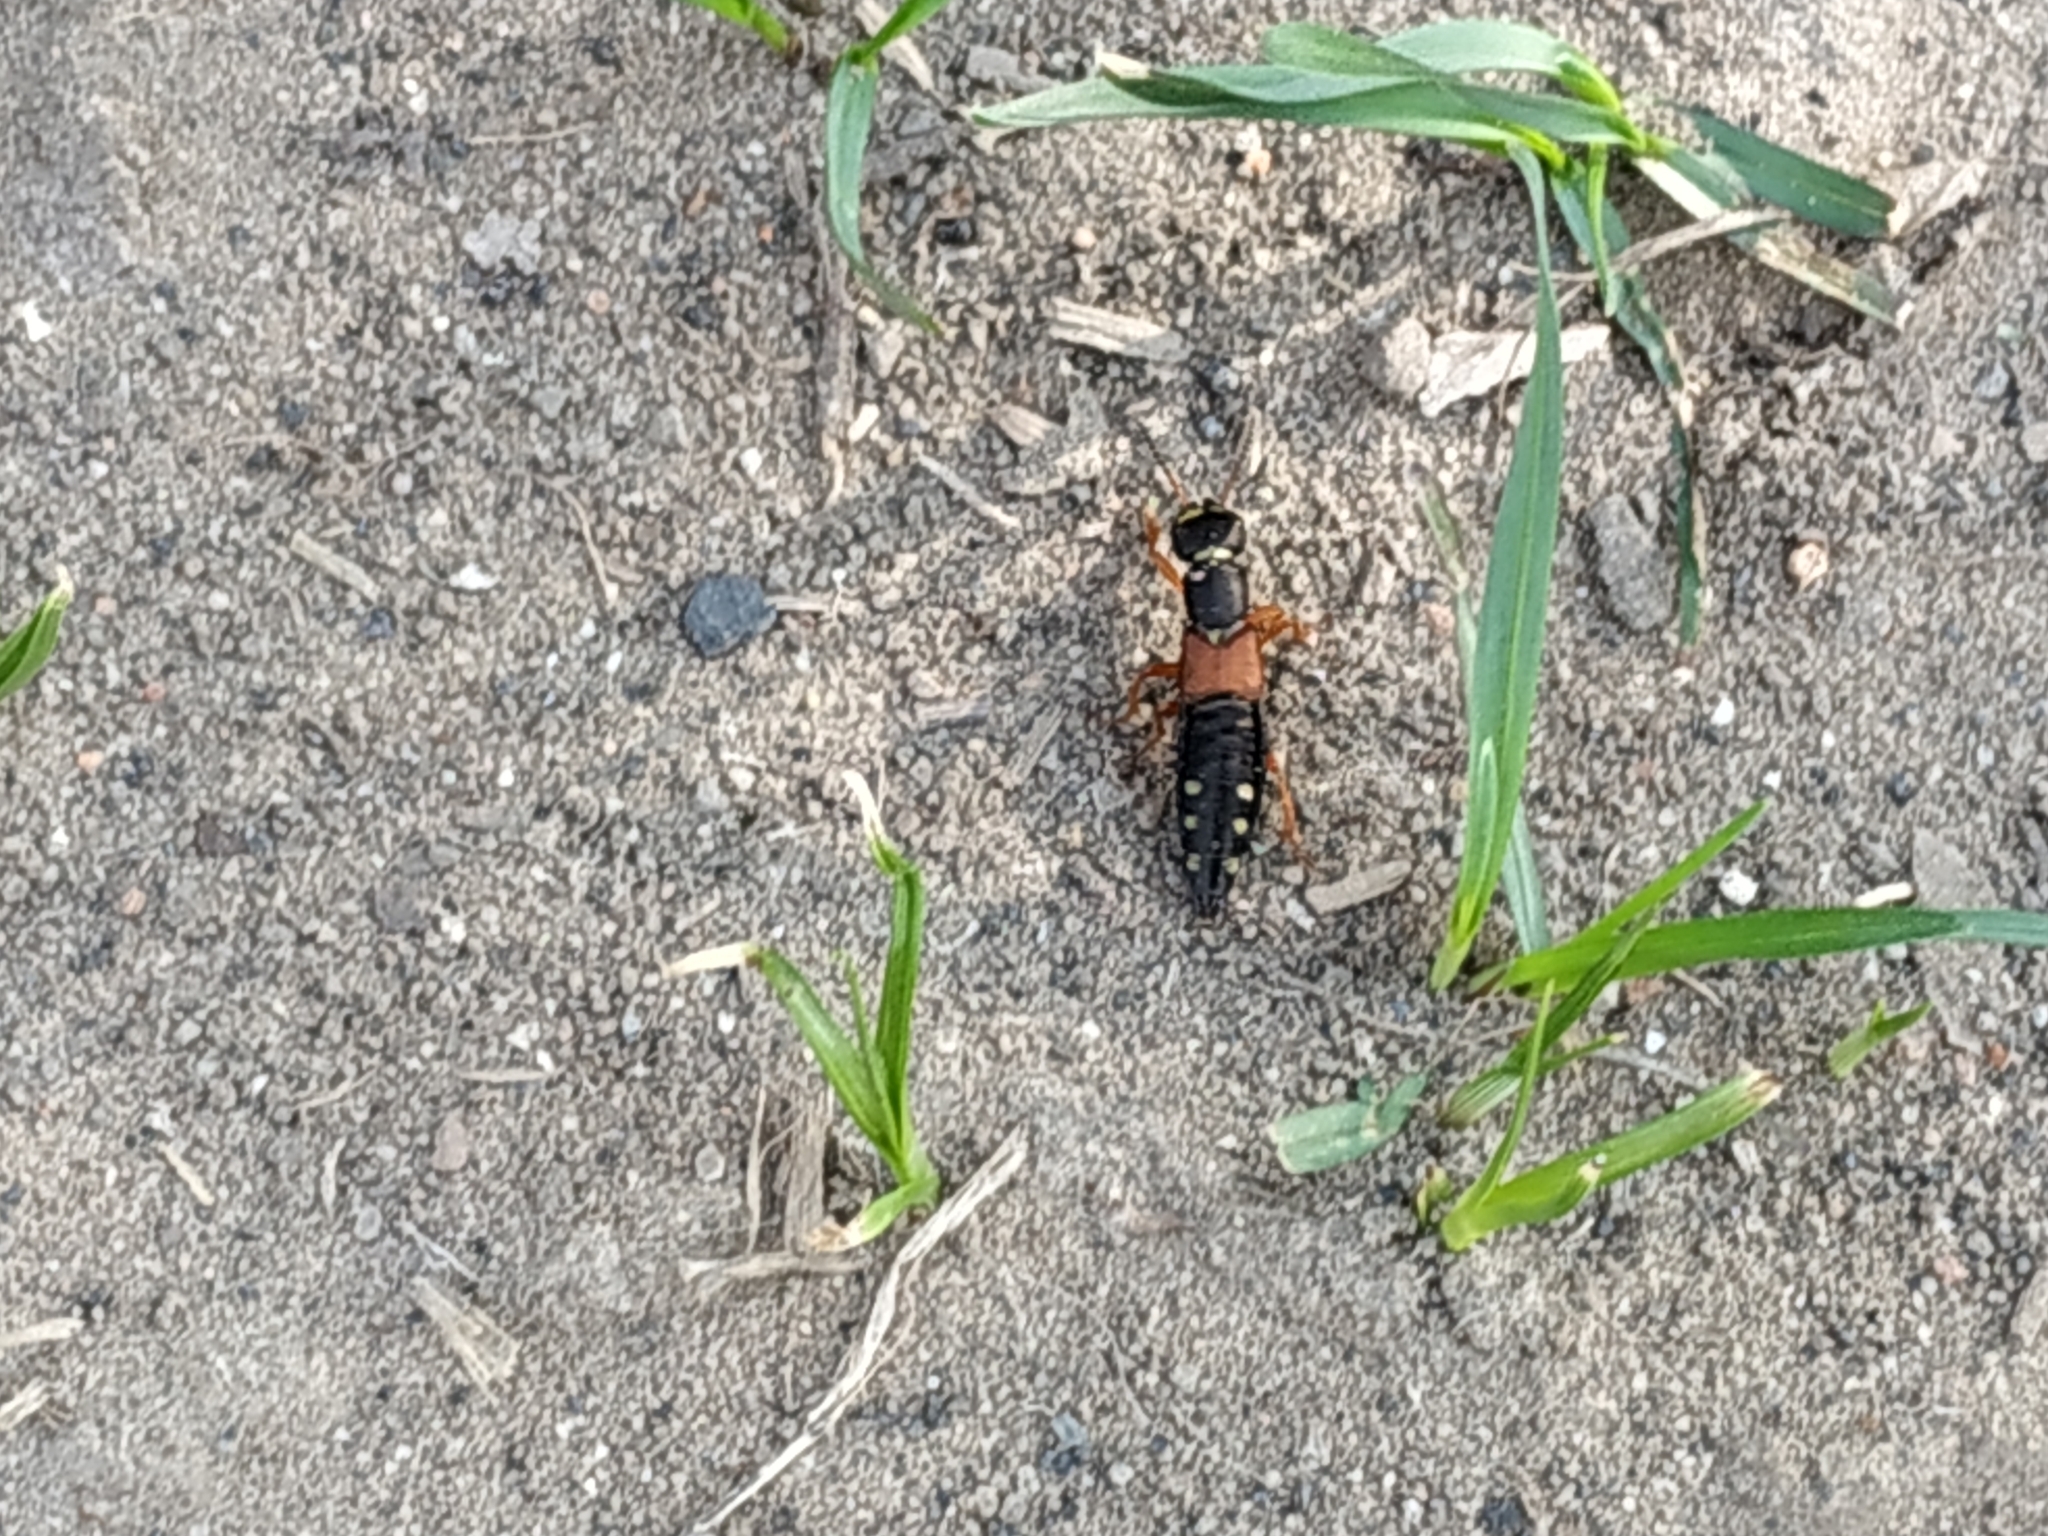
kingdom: Animalia
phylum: Arthropoda
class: Insecta
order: Coleoptera
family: Staphylinidae
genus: Staphylinus
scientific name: Staphylinus erythropterus
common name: Staph beetle
